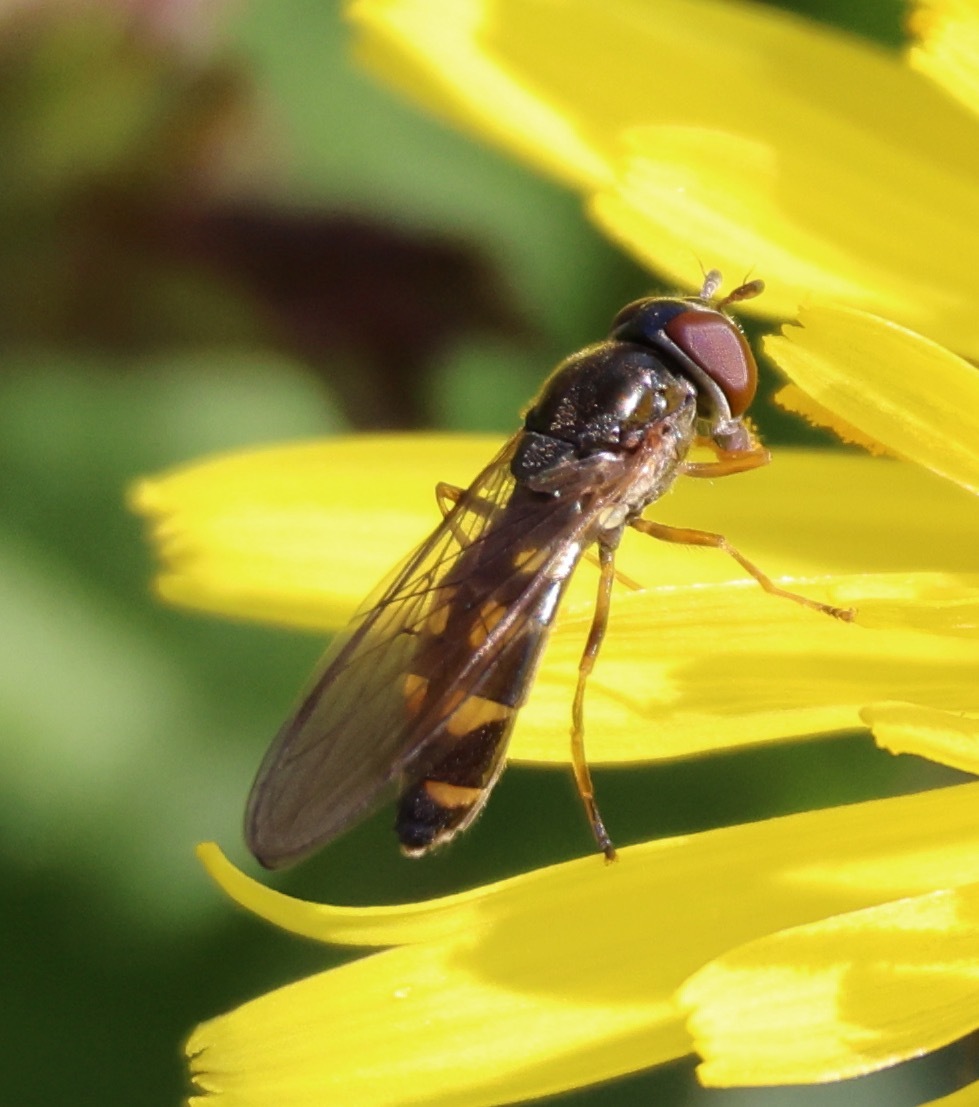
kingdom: Animalia
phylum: Arthropoda
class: Insecta
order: Diptera
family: Syrphidae
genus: Melanostoma
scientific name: Melanostoma scalare
